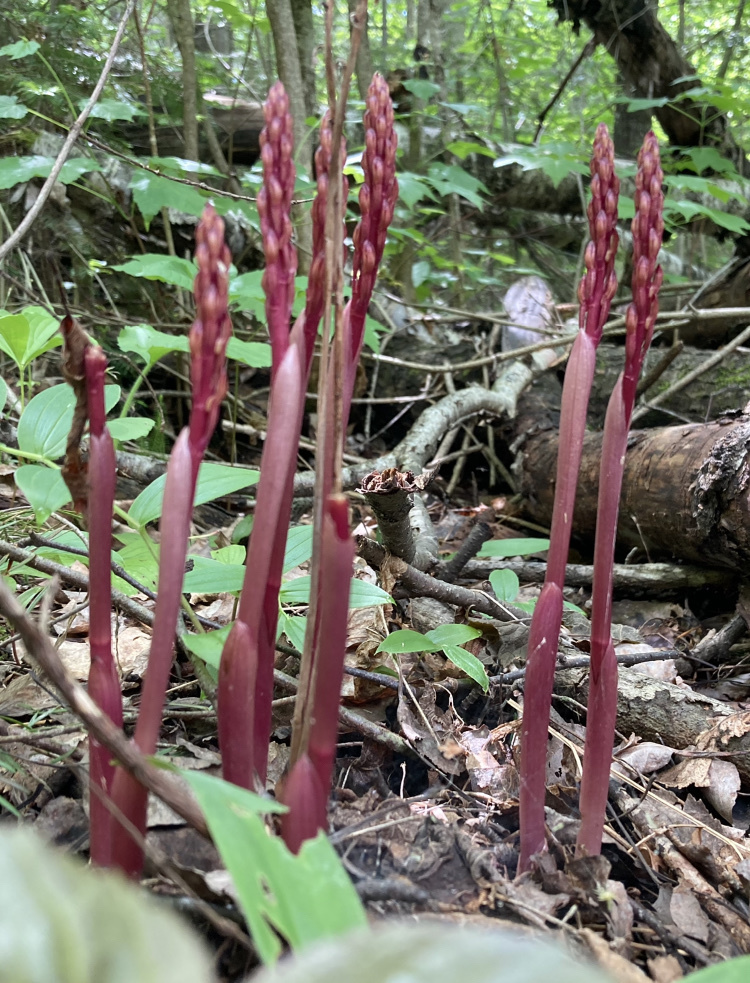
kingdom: Plantae
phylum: Tracheophyta
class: Liliopsida
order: Asparagales
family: Orchidaceae
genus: Corallorhiza
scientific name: Corallorhiza striata
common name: Hooded coralroot
